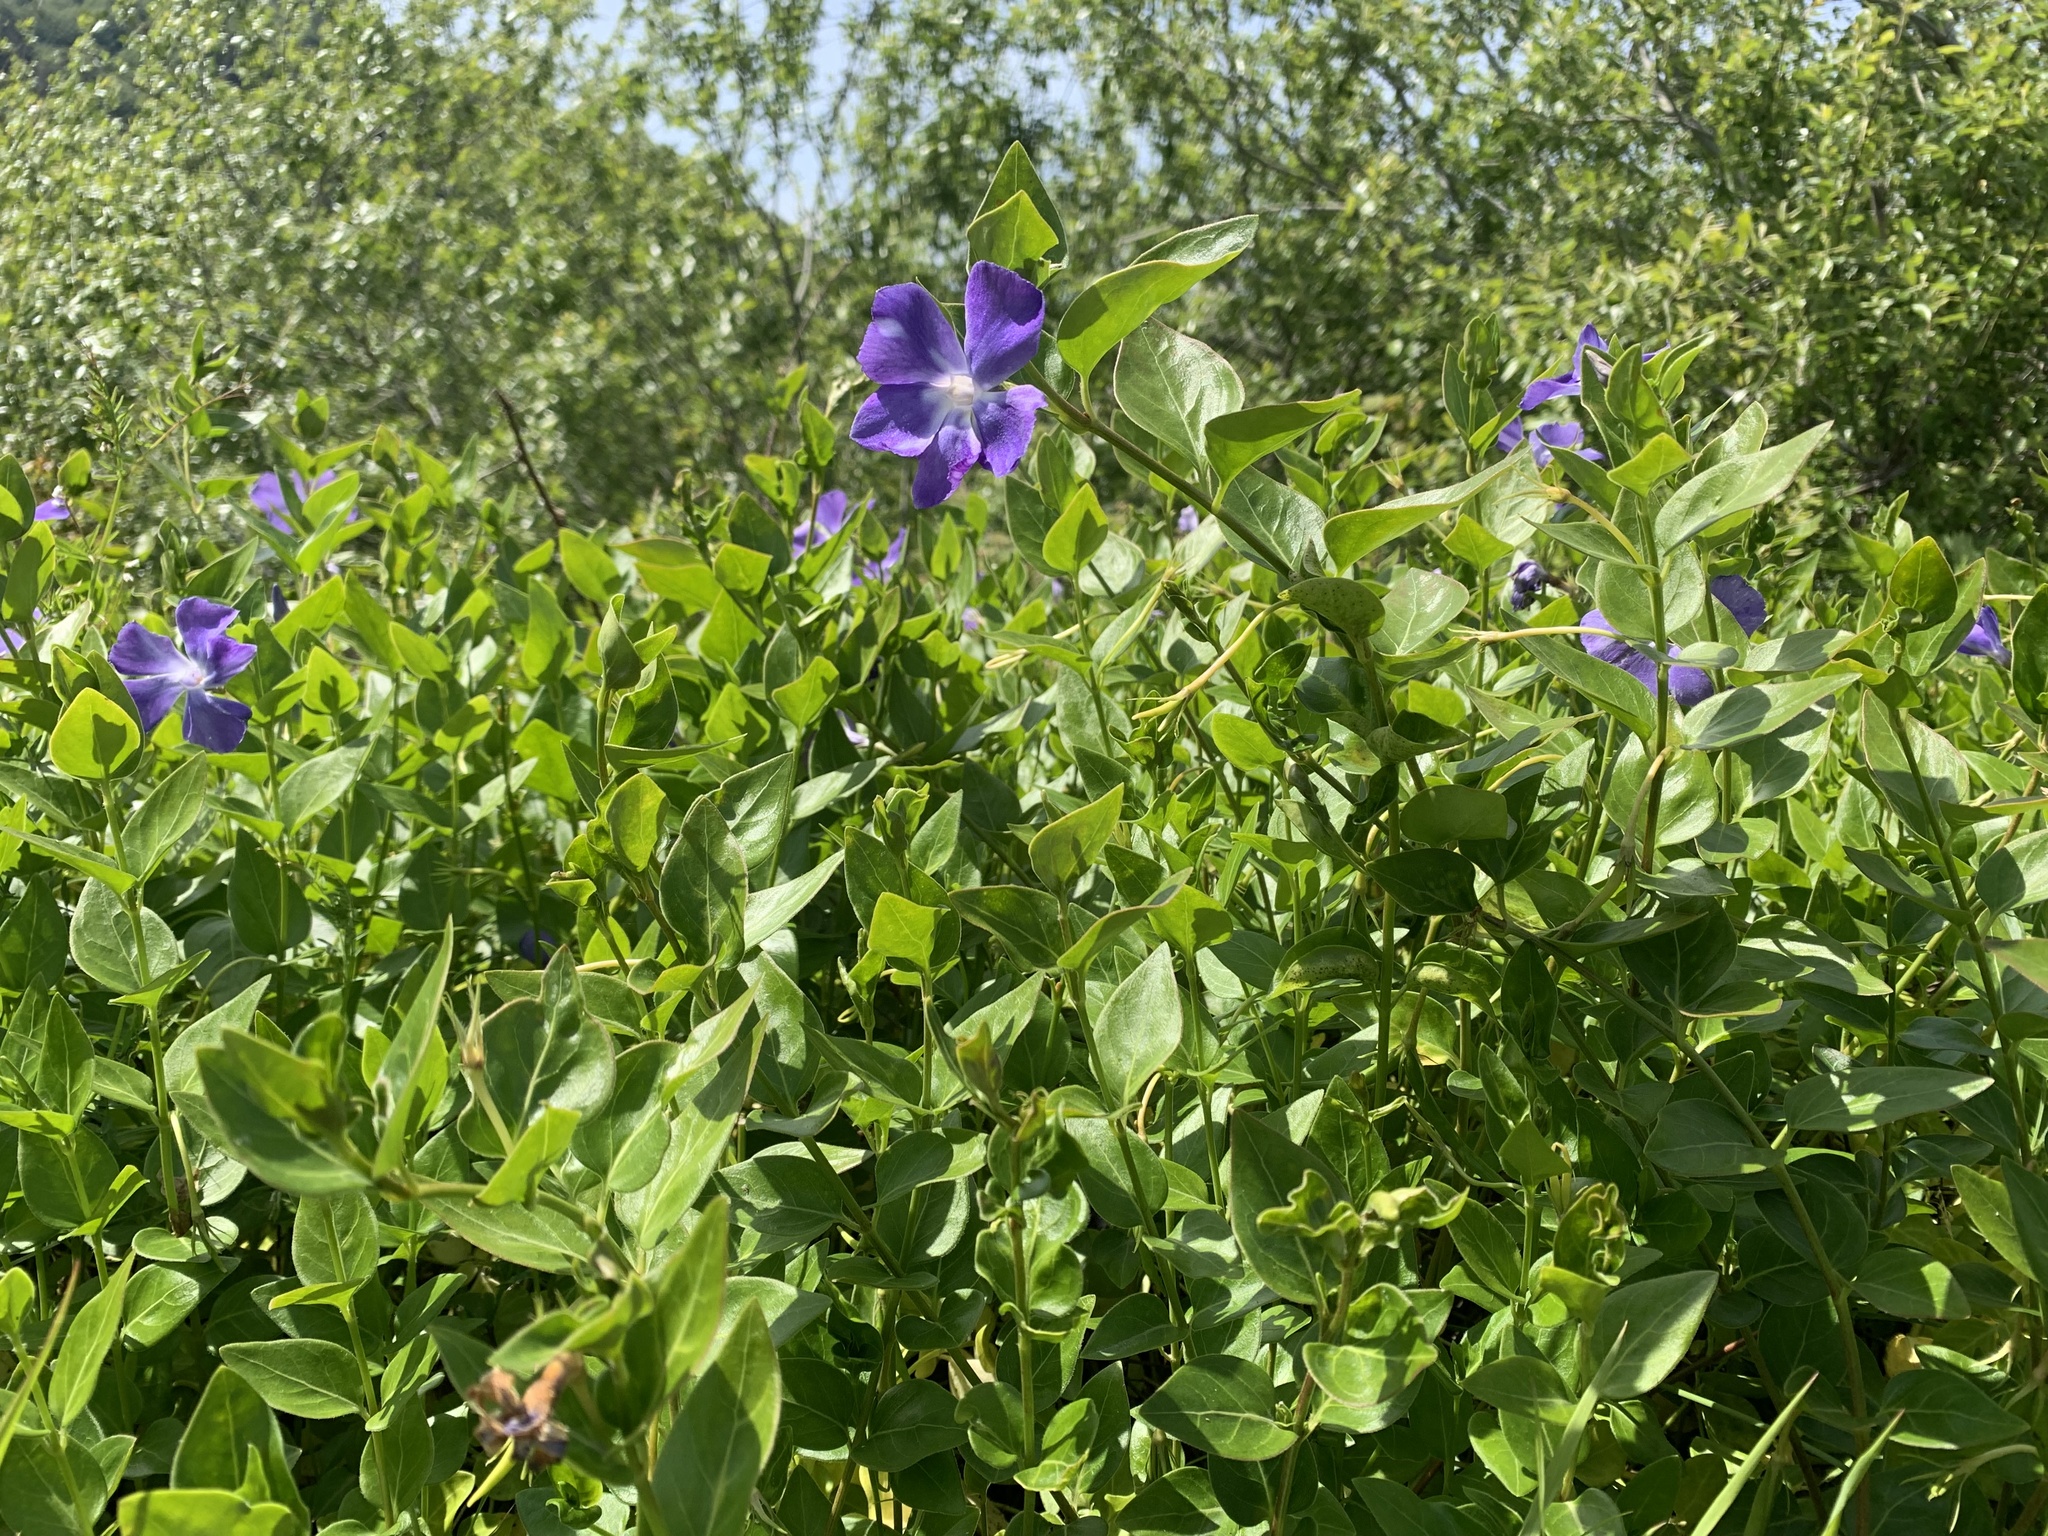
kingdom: Plantae
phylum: Tracheophyta
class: Magnoliopsida
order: Gentianales
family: Apocynaceae
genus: Vinca
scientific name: Vinca major
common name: Greater periwinkle
